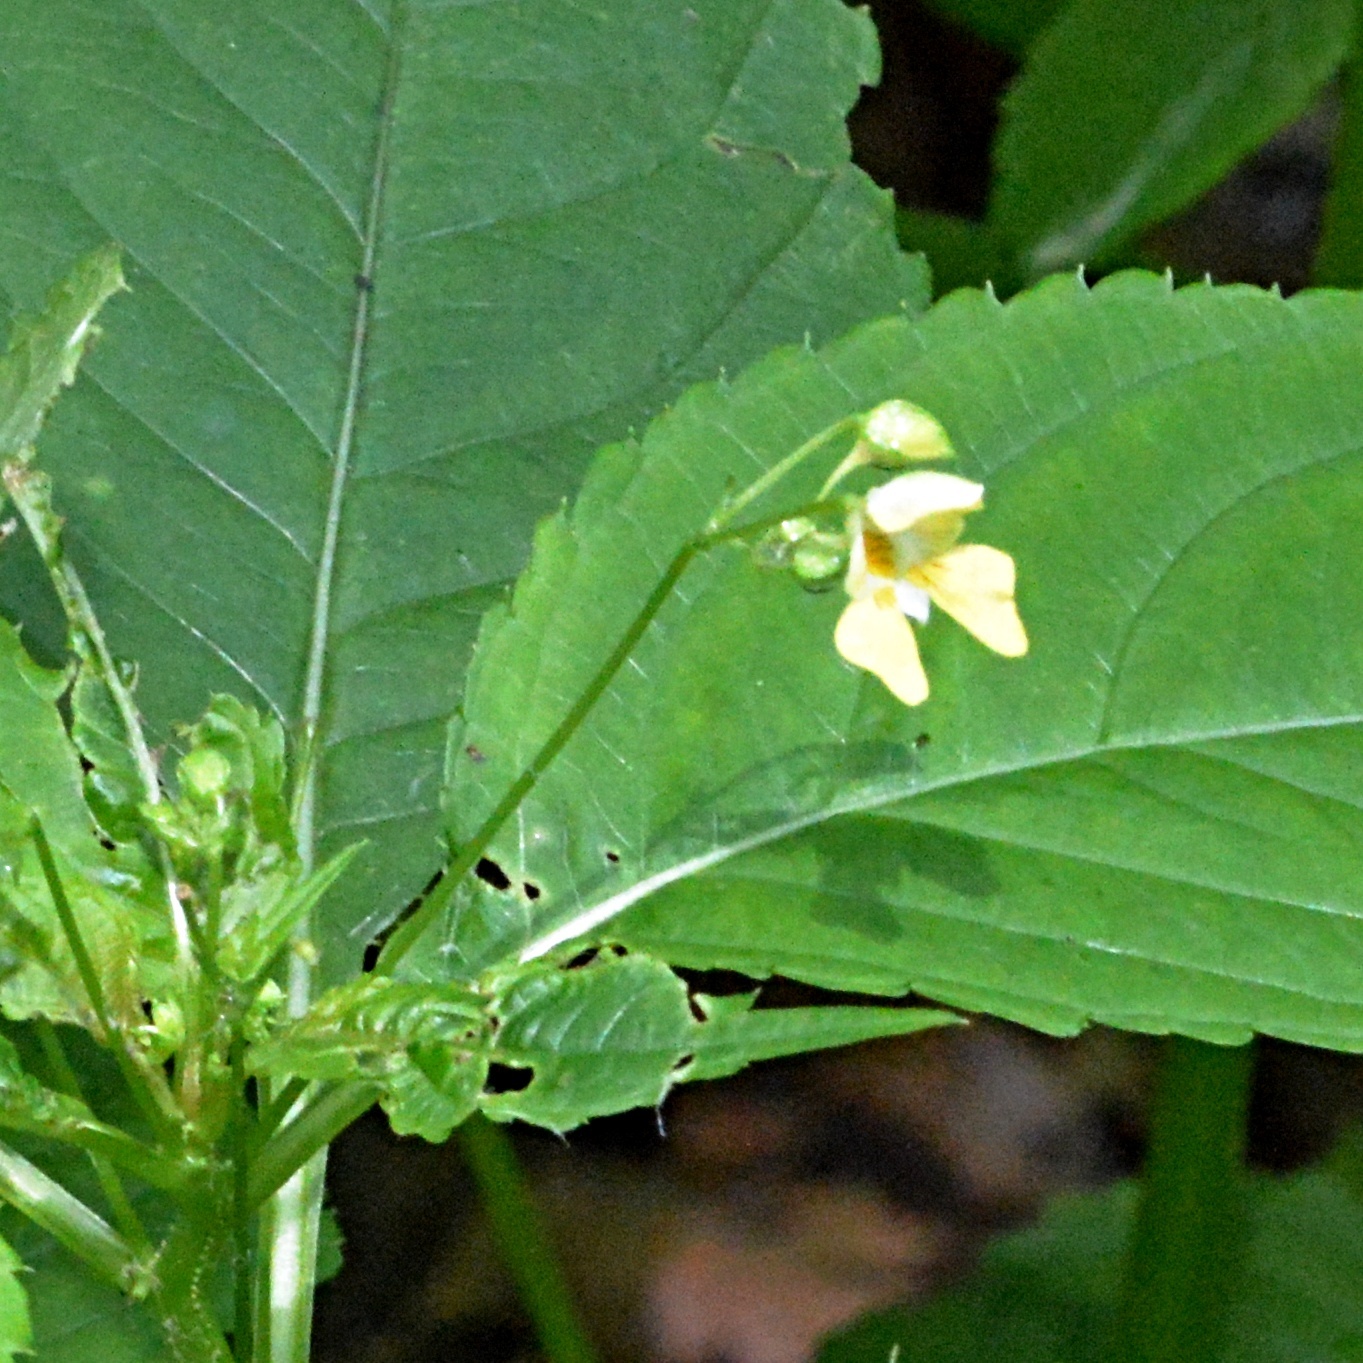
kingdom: Plantae
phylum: Tracheophyta
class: Magnoliopsida
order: Ericales
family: Balsaminaceae
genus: Impatiens
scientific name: Impatiens parviflora
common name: Small balsam
